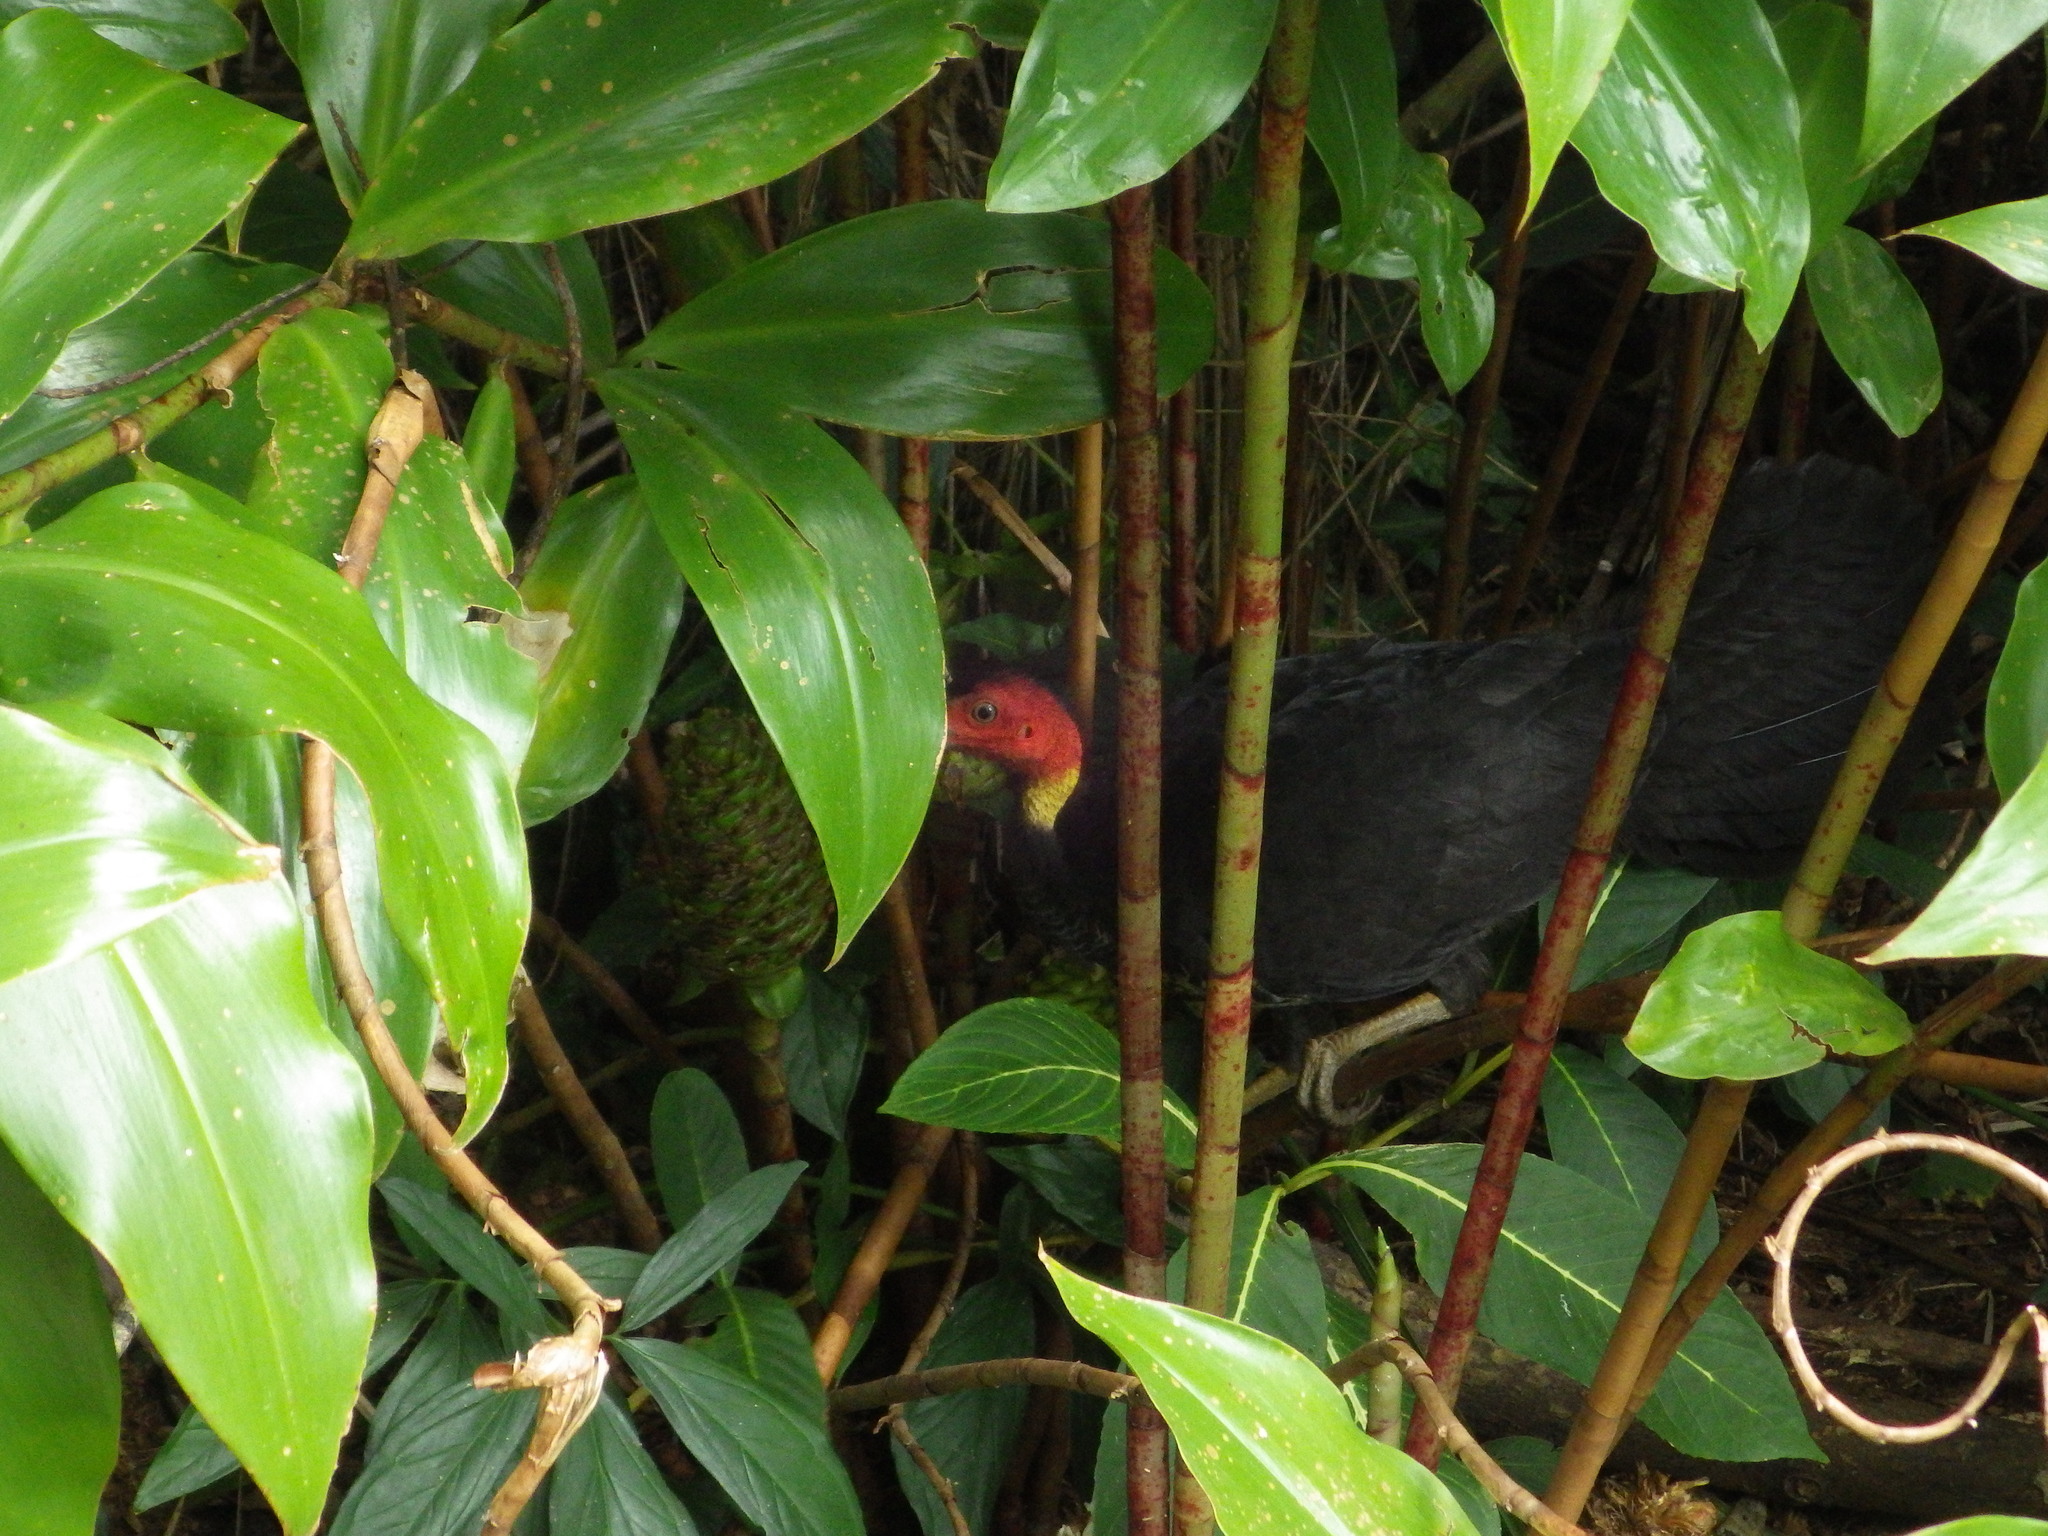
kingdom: Animalia
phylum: Chordata
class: Aves
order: Galliformes
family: Megapodiidae
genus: Alectura
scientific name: Alectura lathami
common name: Australian brushturkey
